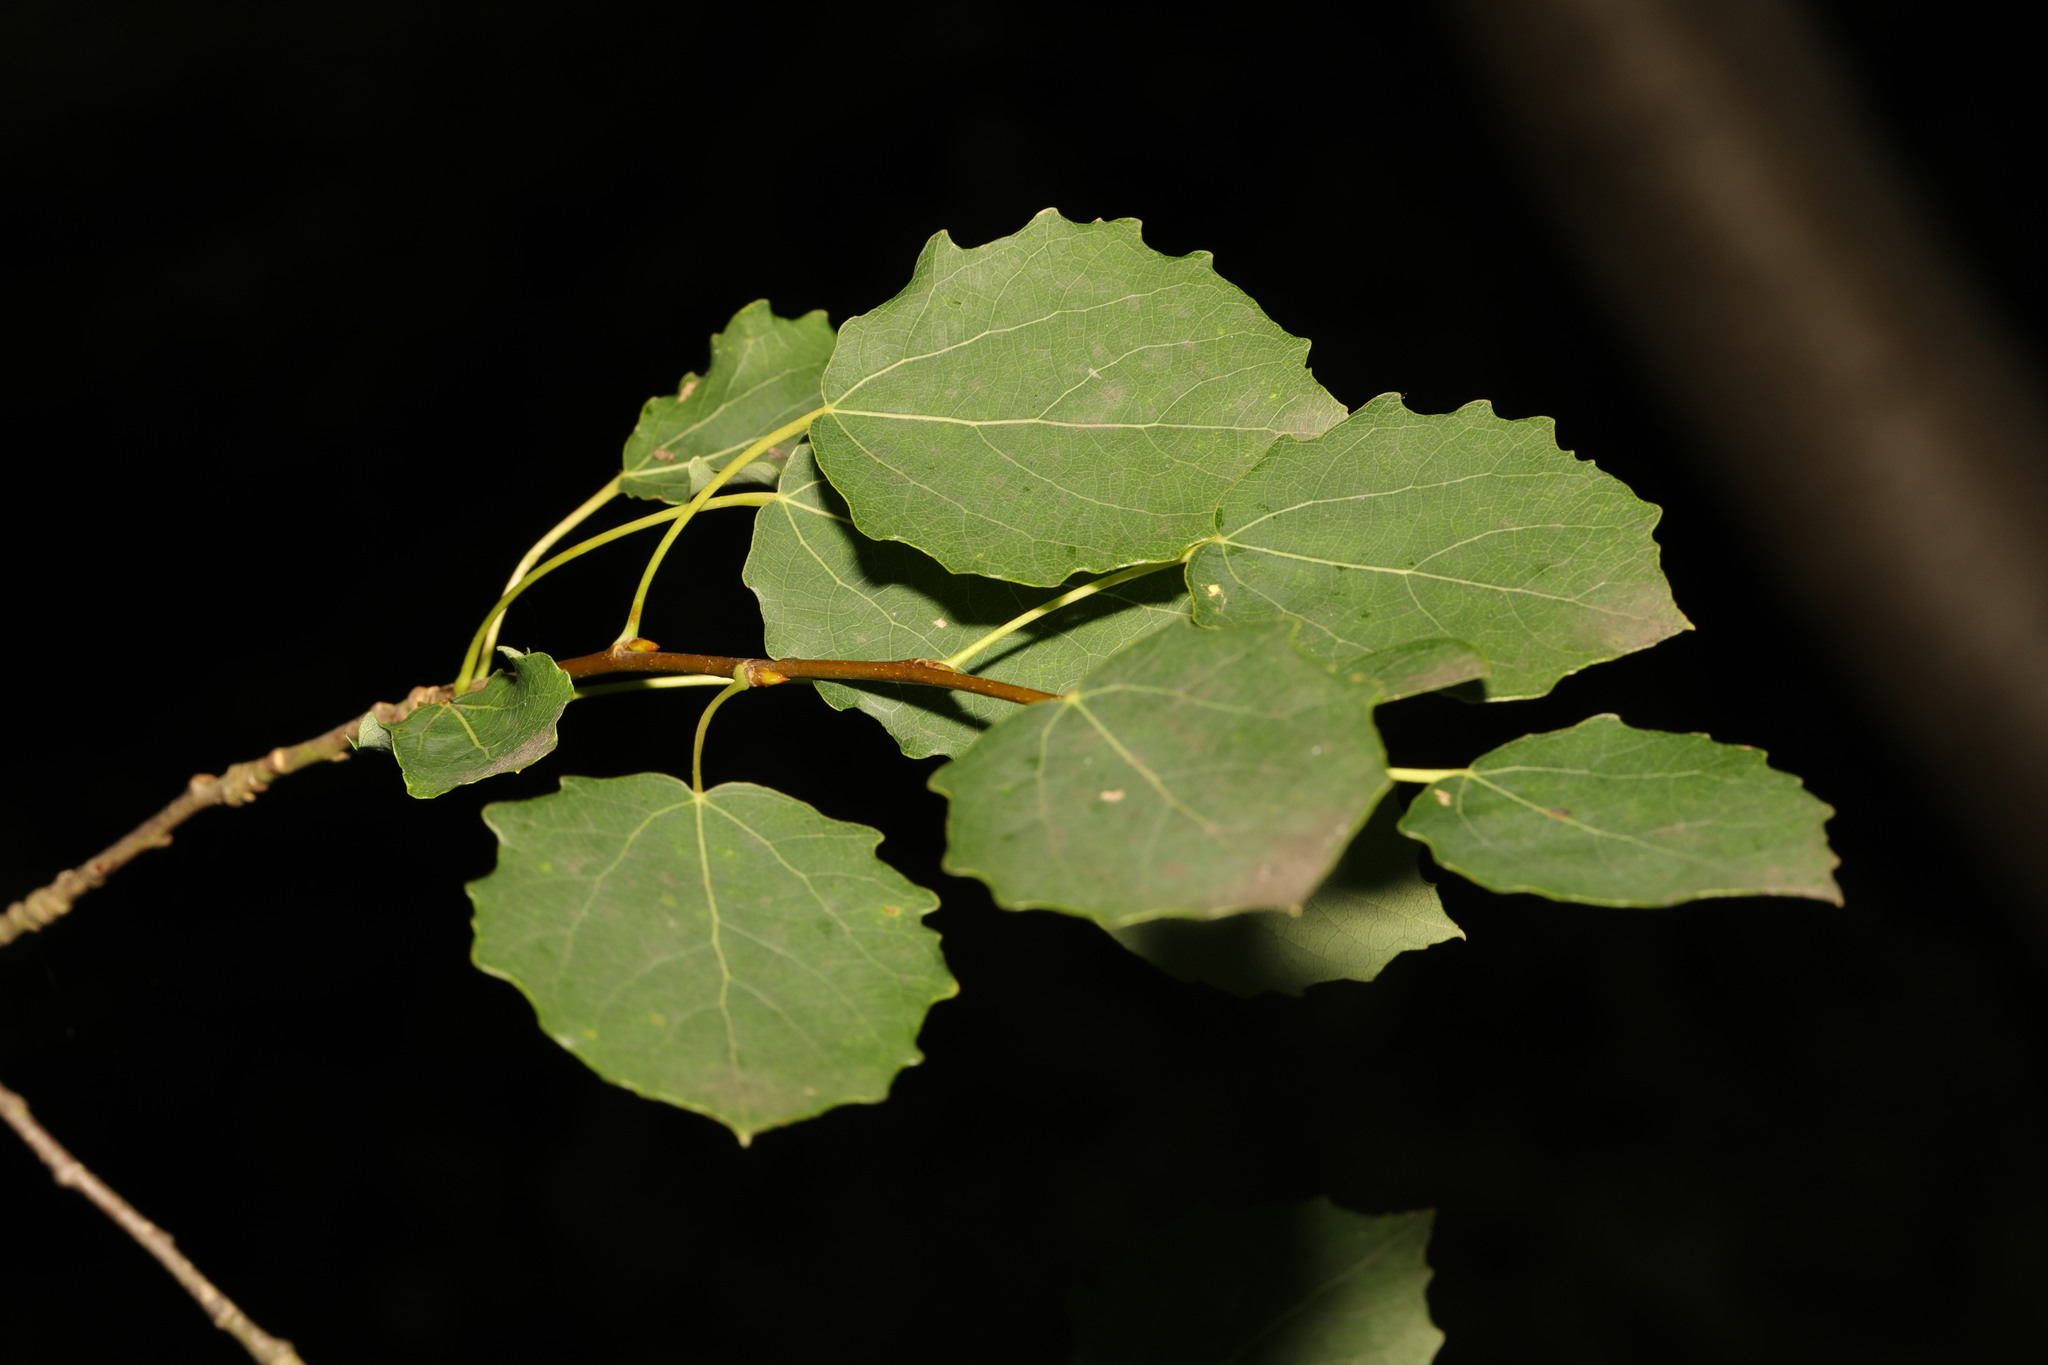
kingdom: Plantae
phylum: Tracheophyta
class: Magnoliopsida
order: Malpighiales
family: Salicaceae
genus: Populus
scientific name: Populus tremula
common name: European aspen
